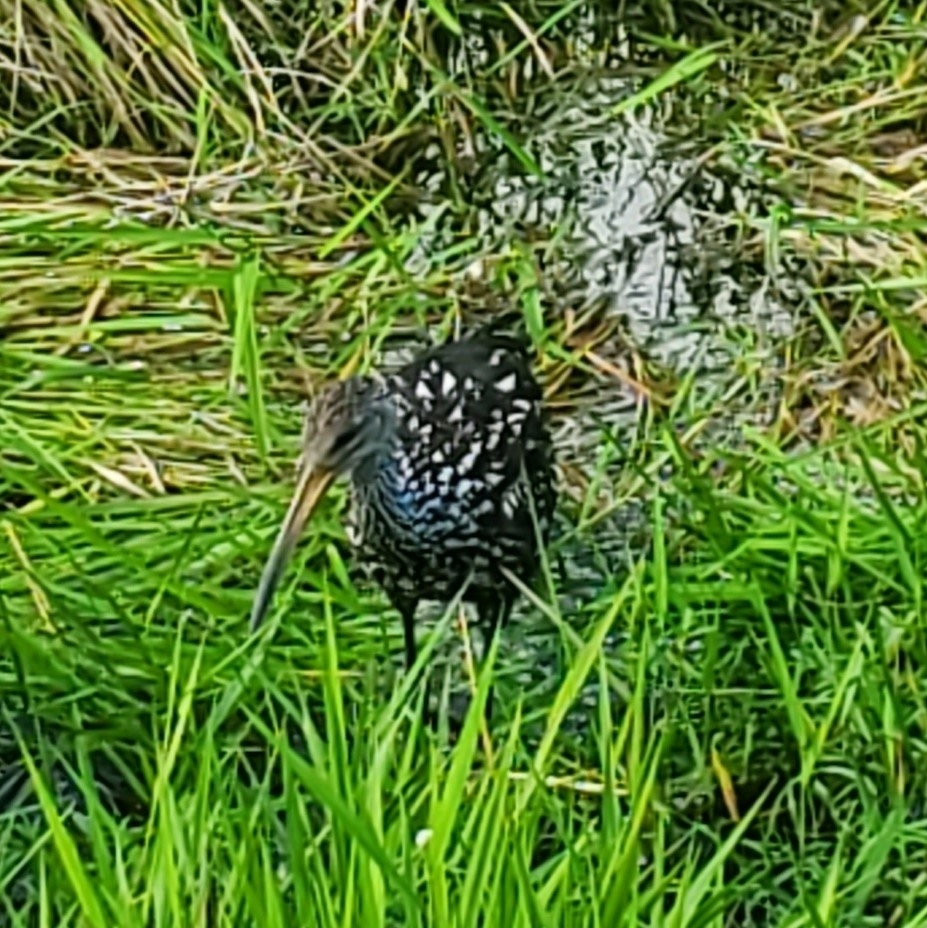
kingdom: Animalia
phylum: Chordata
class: Aves
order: Gruiformes
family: Aramidae
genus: Aramus
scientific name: Aramus guarauna
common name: Limpkin
